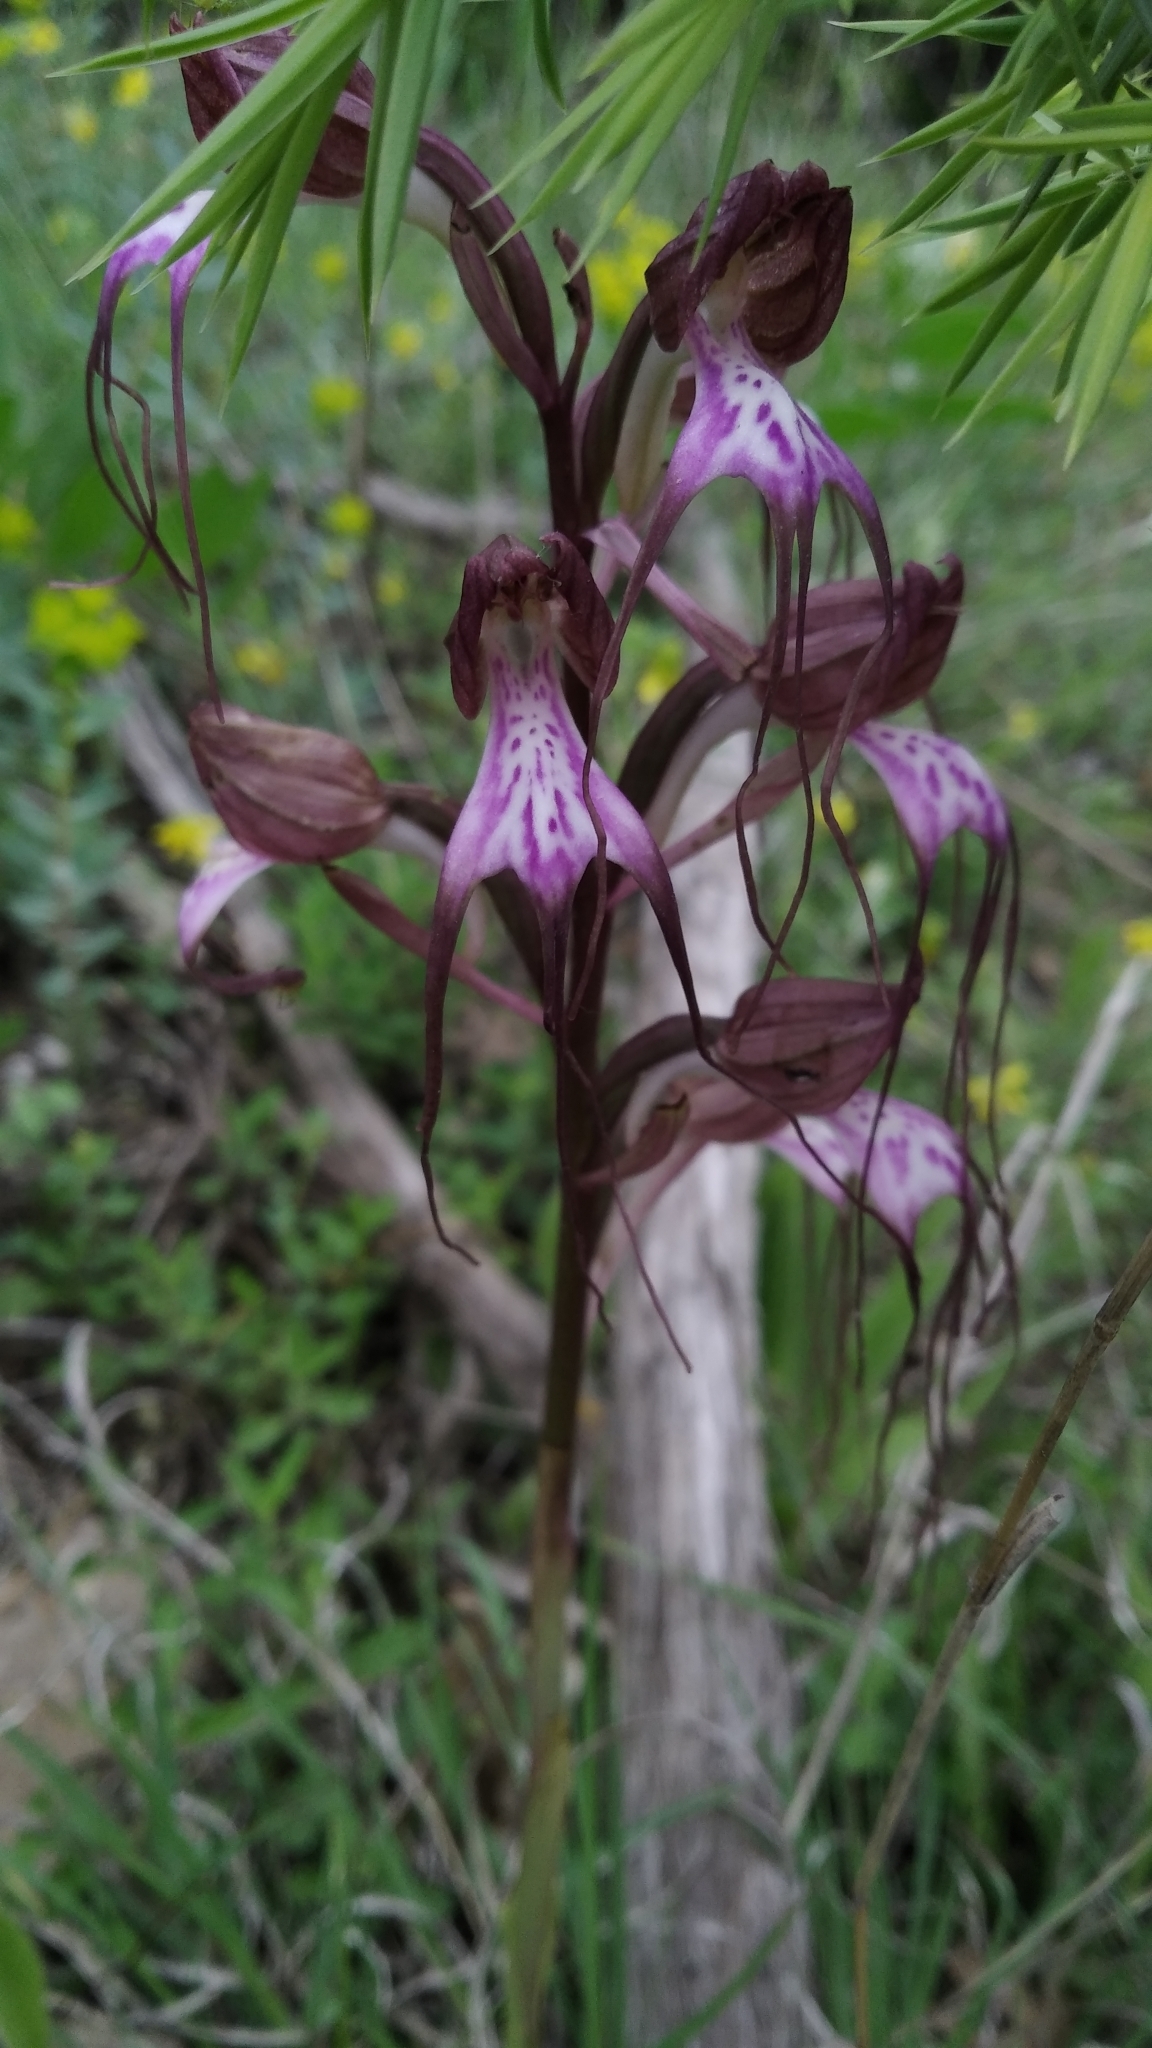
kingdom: Plantae
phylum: Tracheophyta
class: Liliopsida
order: Asparagales
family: Orchidaceae
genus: Himantoglossum
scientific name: Himantoglossum comperianum
